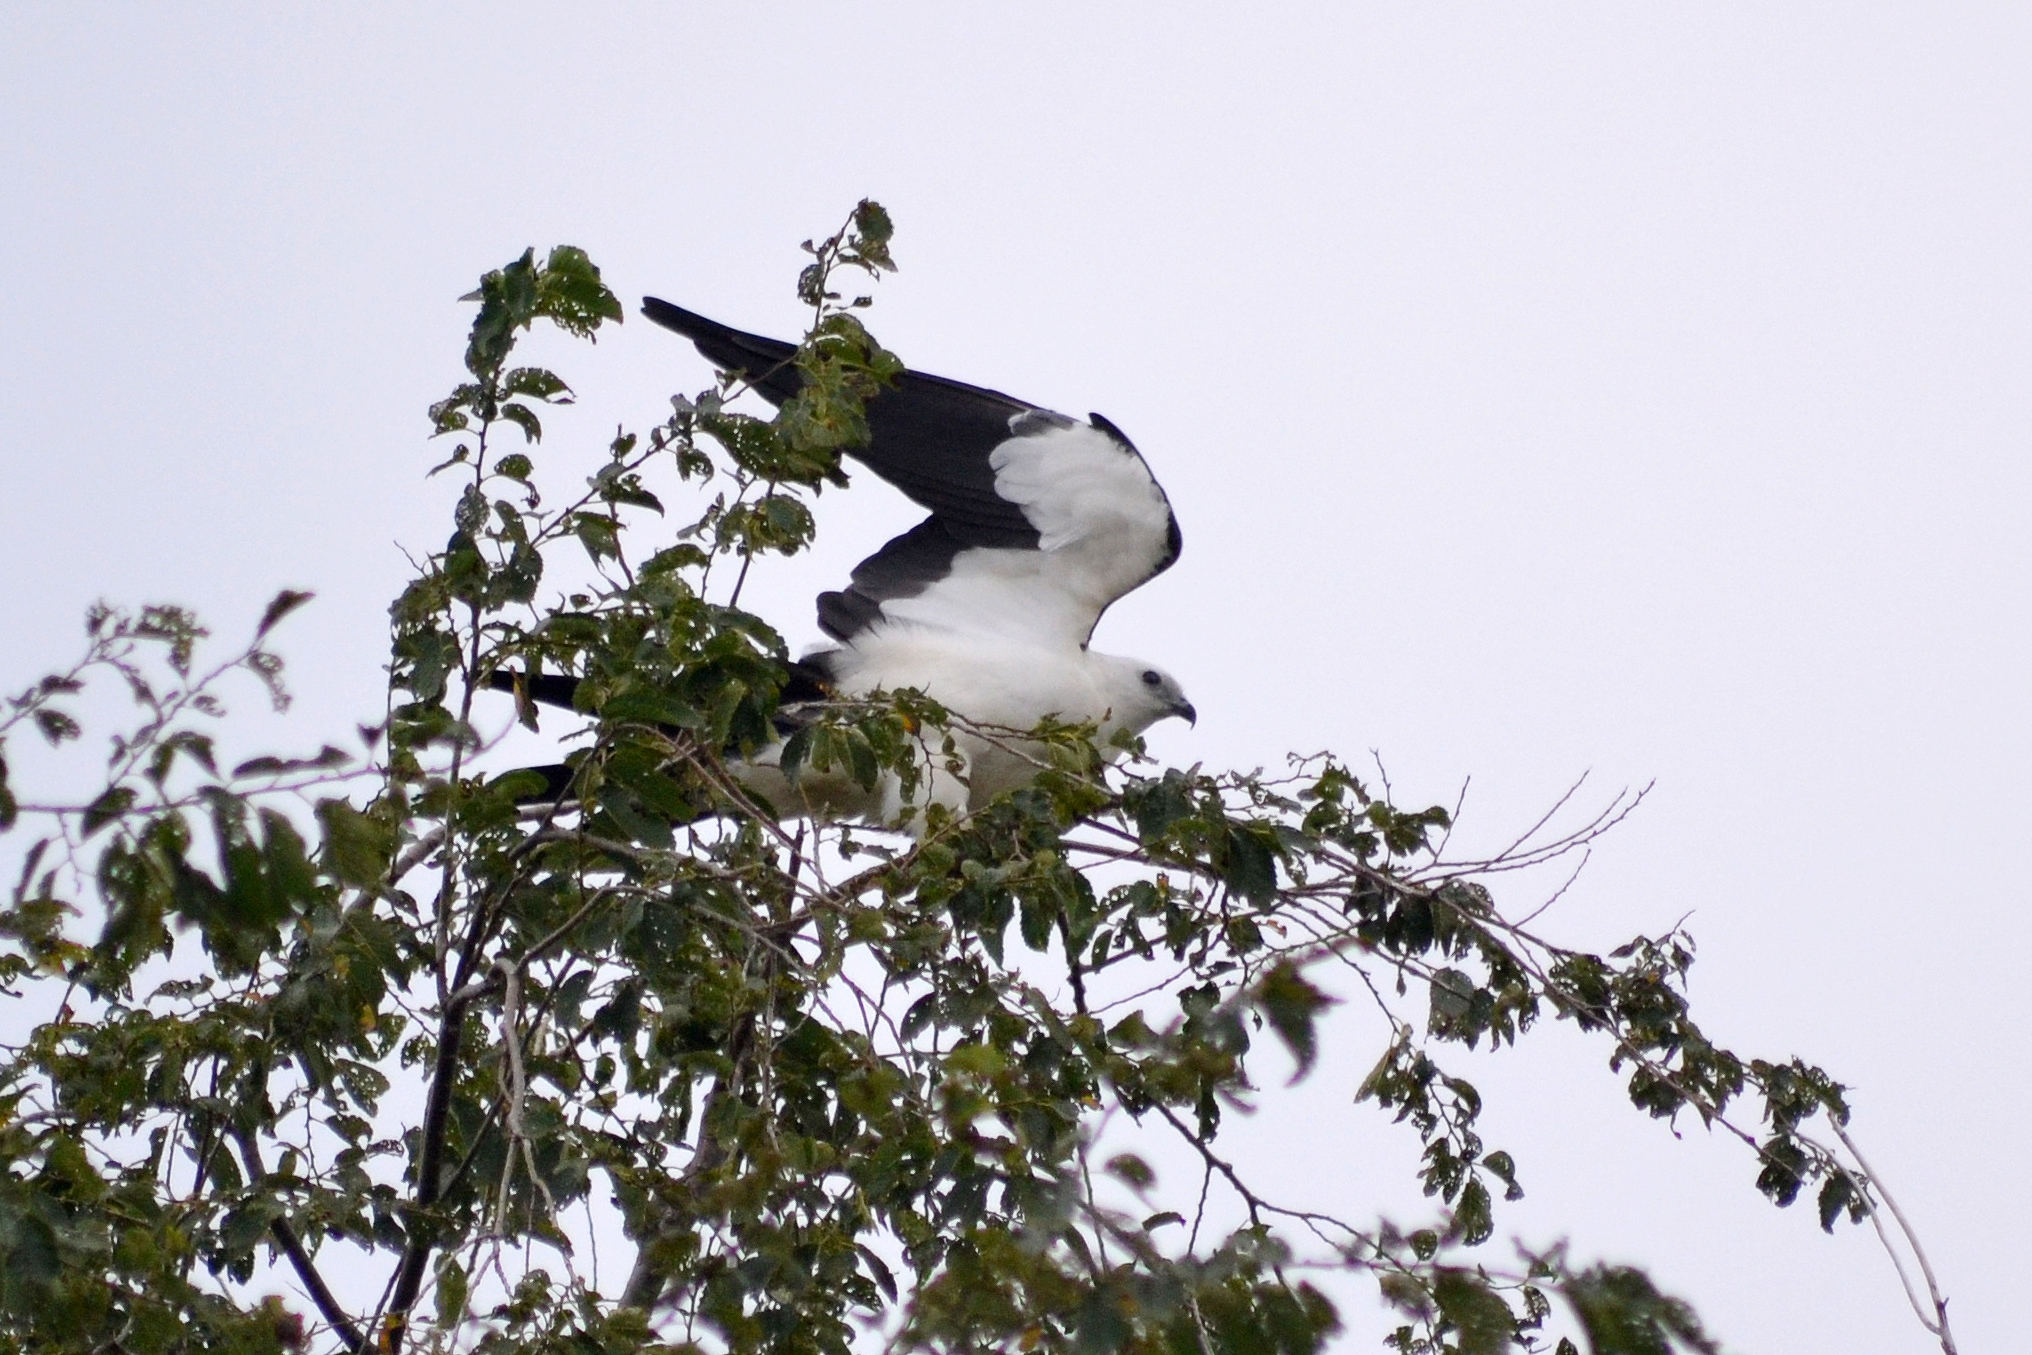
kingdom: Animalia
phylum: Chordata
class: Aves
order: Accipitriformes
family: Accipitridae
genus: Elanoides
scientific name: Elanoides forficatus
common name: Swallow-tailed kite
